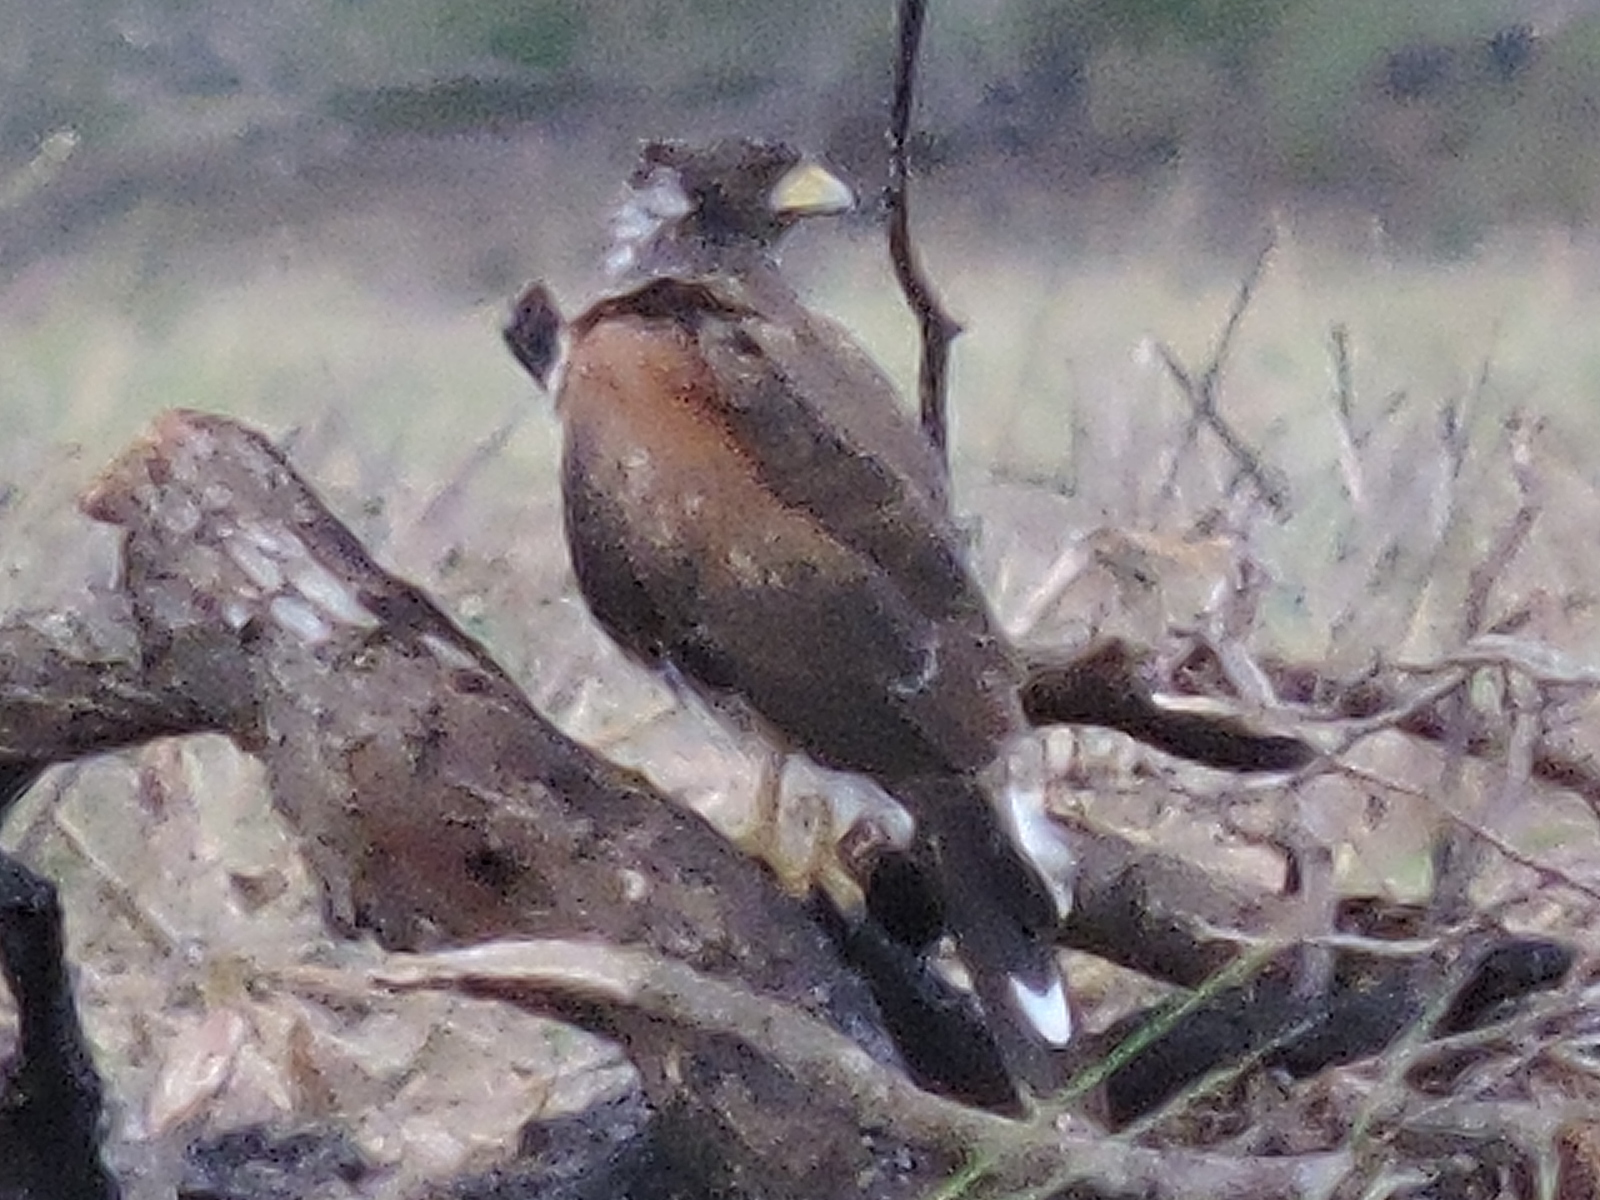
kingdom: Animalia
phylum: Chordata
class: Aves
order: Accipitriformes
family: Accipitridae
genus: Parabuteo
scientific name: Parabuteo unicinctus
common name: Harris's hawk
